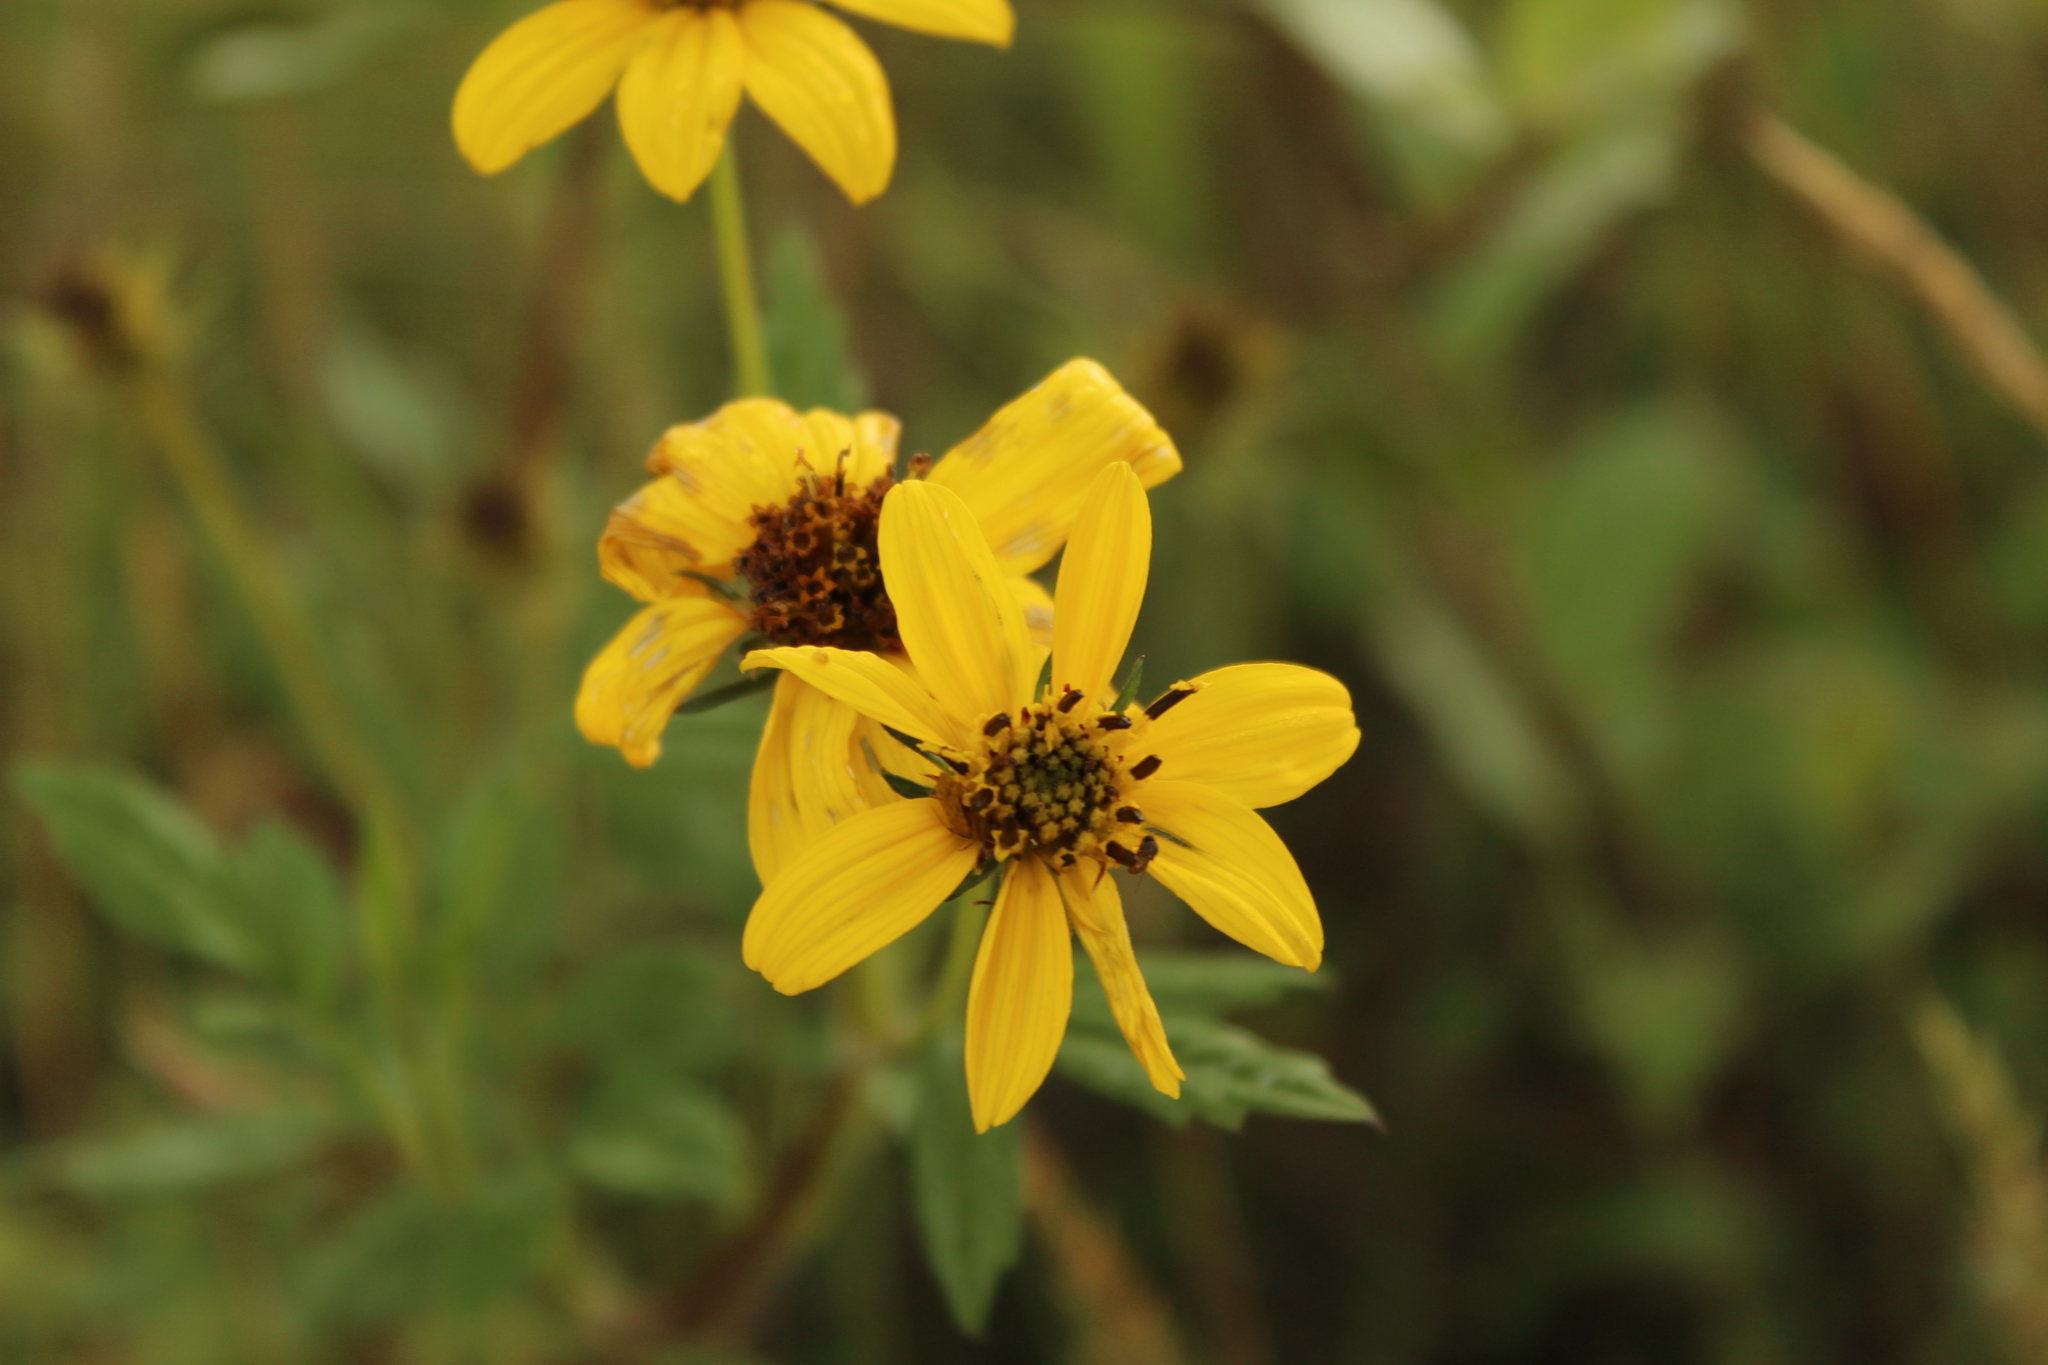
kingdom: Plantae
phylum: Tracheophyta
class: Magnoliopsida
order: Asterales
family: Asteraceae
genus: Bidens
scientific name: Bidens rubifolia
